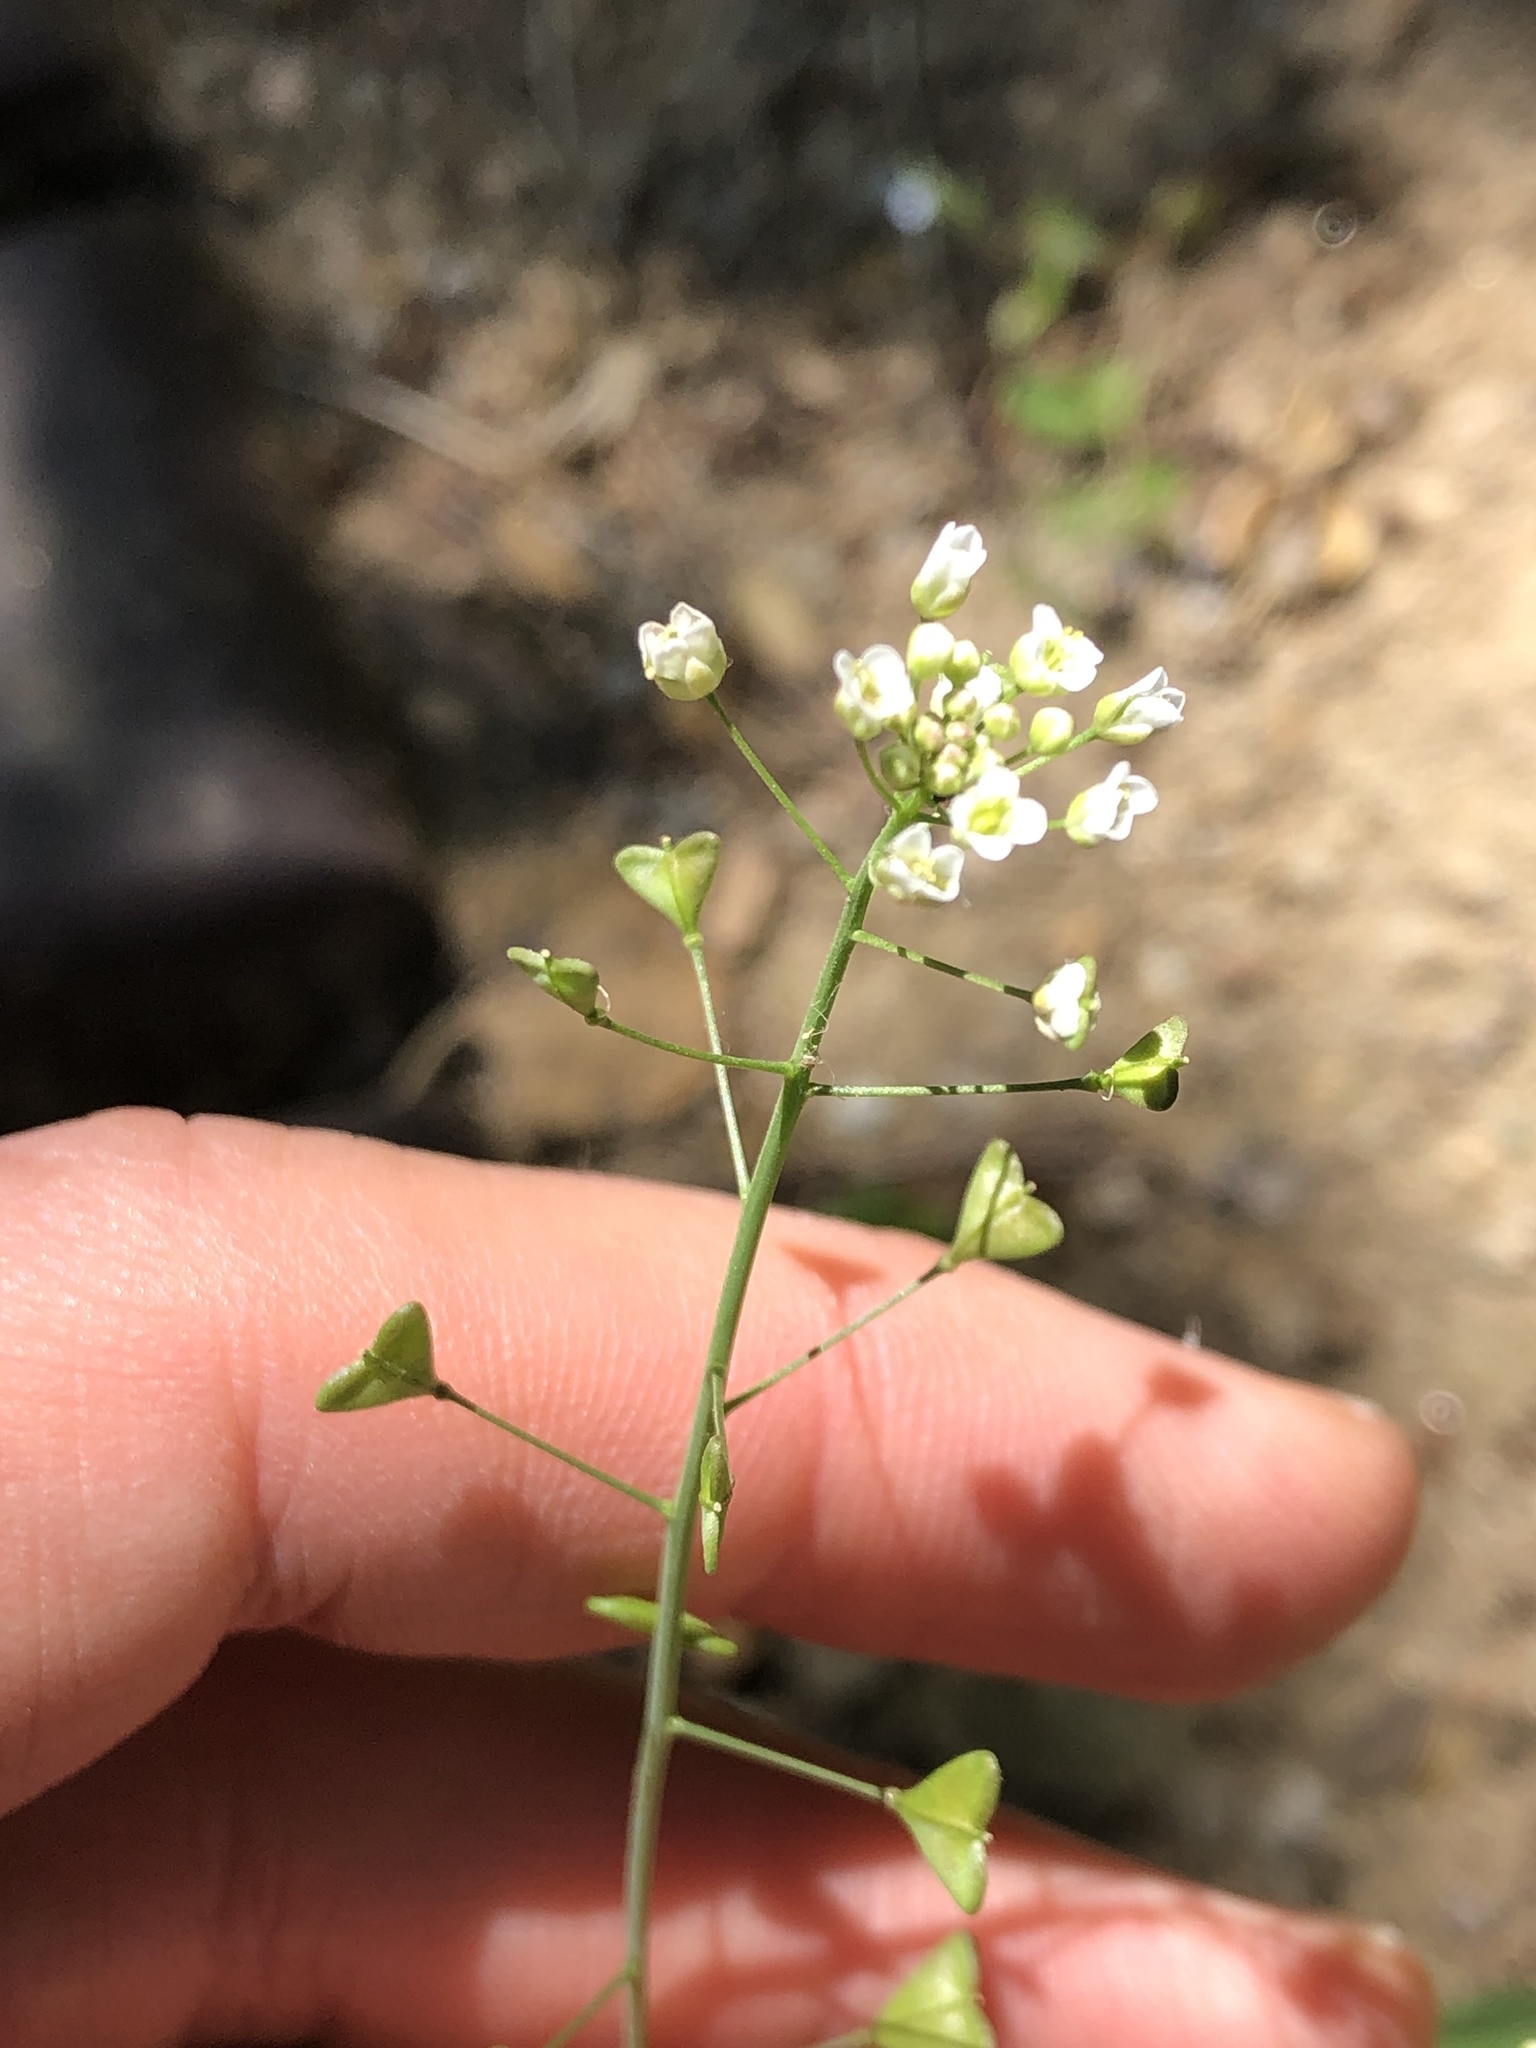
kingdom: Plantae
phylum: Tracheophyta
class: Magnoliopsida
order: Brassicales
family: Brassicaceae
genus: Capsella
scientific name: Capsella bursa-pastoris
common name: Shepherd's purse
